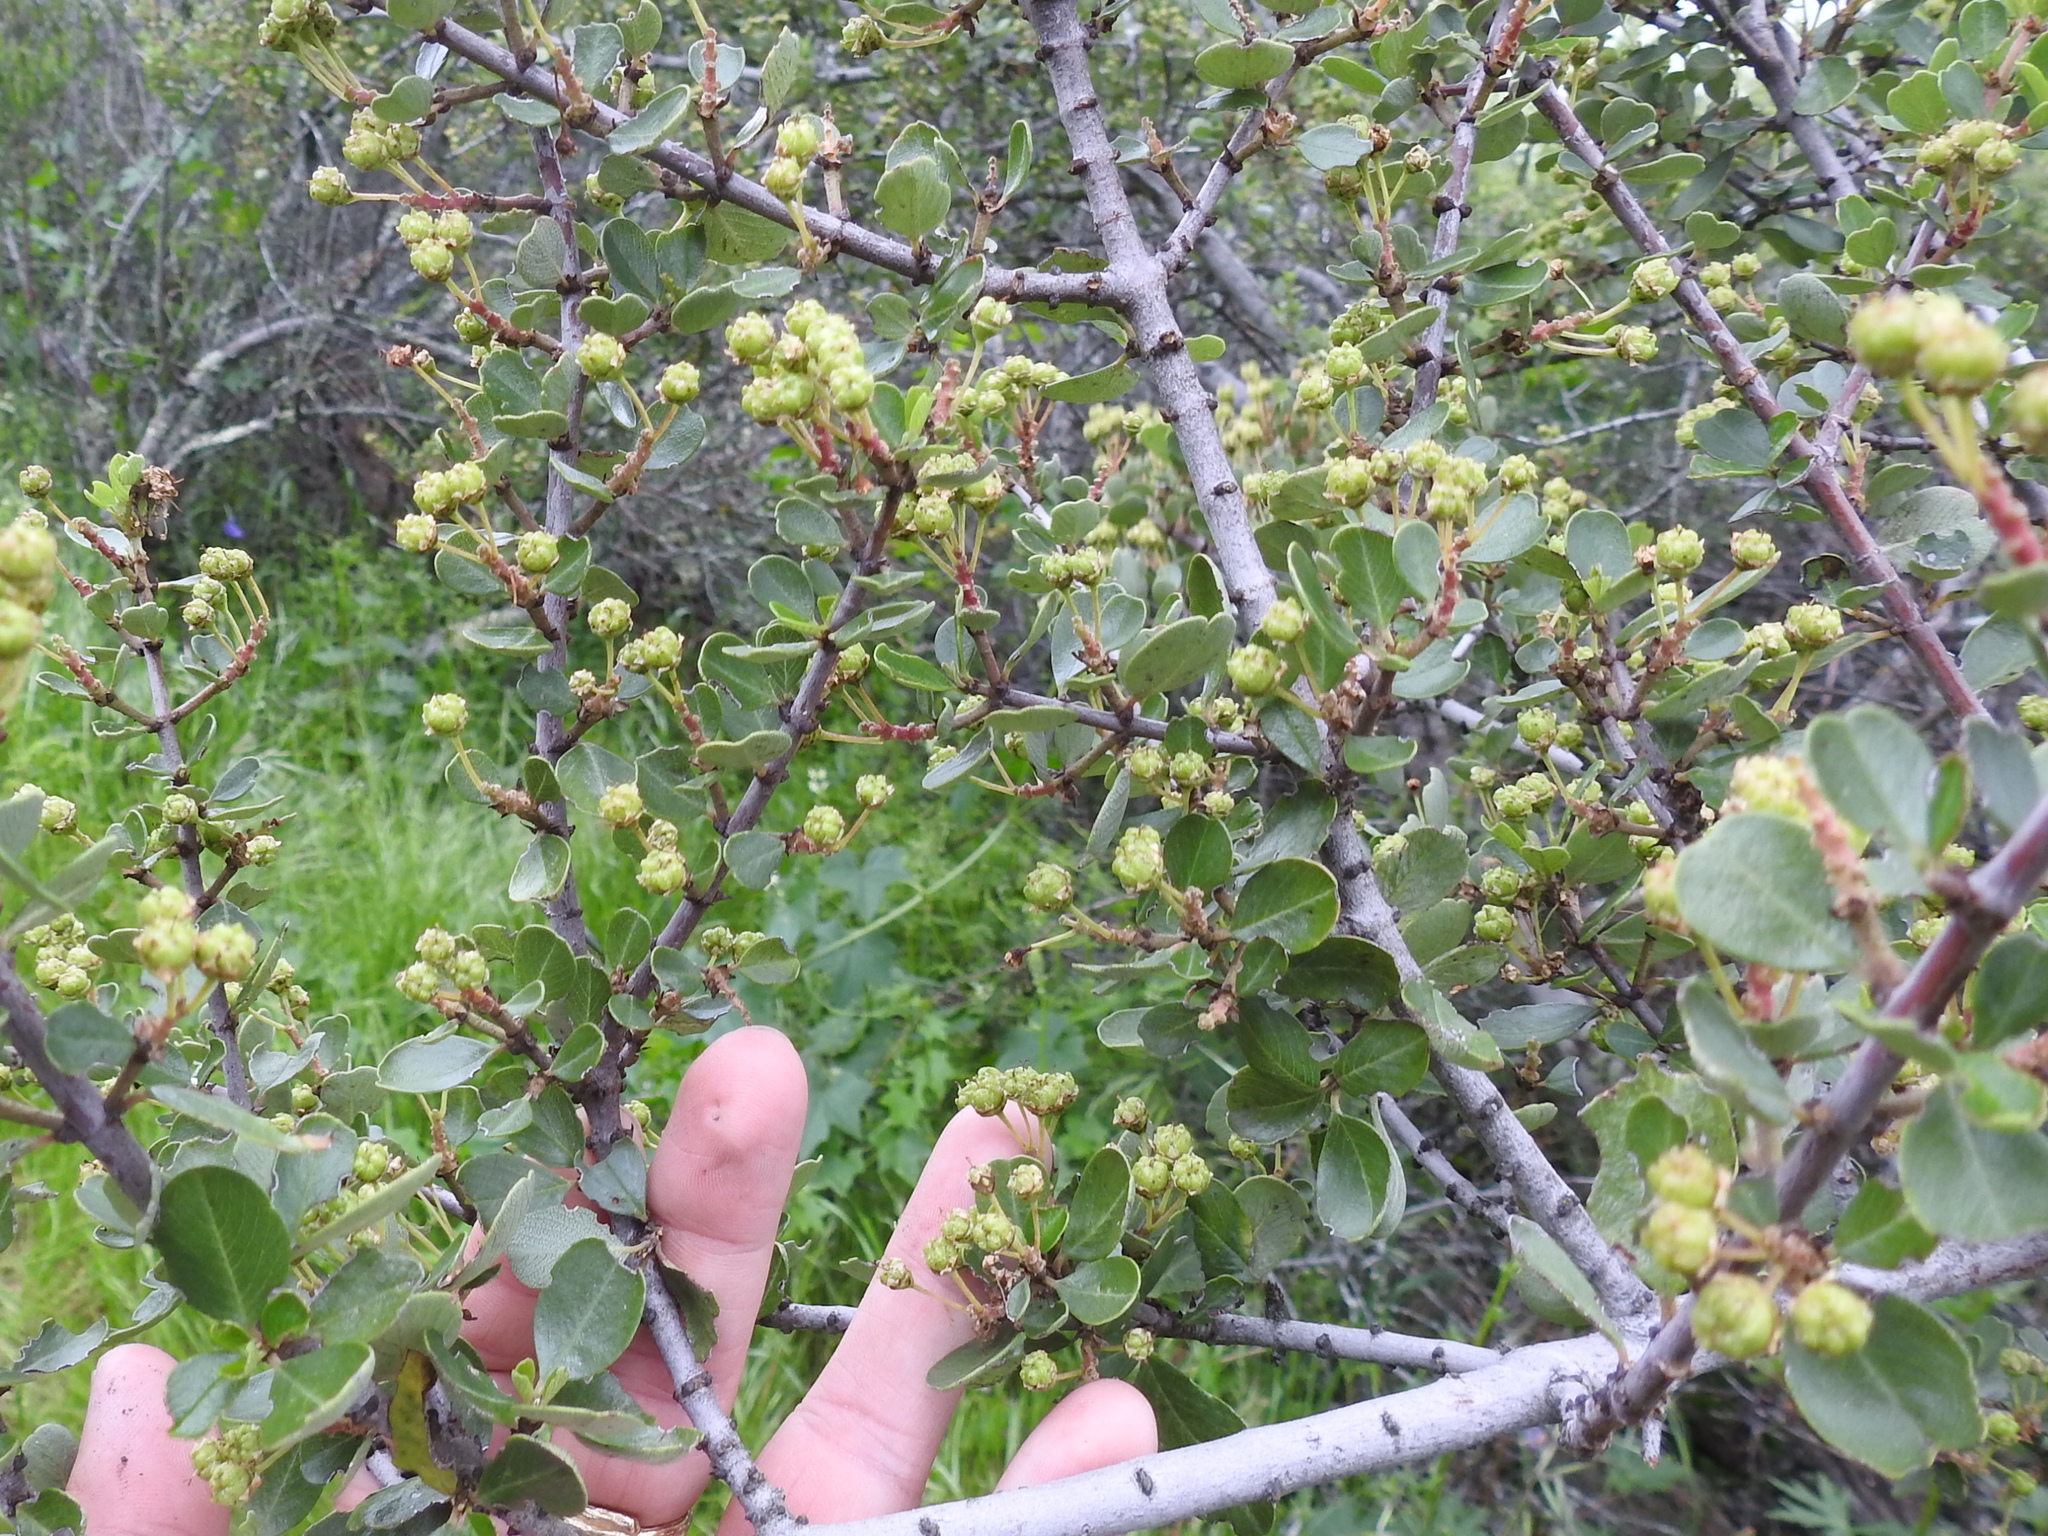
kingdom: Plantae
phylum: Tracheophyta
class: Magnoliopsida
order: Rosales
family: Rhamnaceae
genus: Ceanothus
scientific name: Ceanothus cuneatus
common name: Cuneate ceanothus
